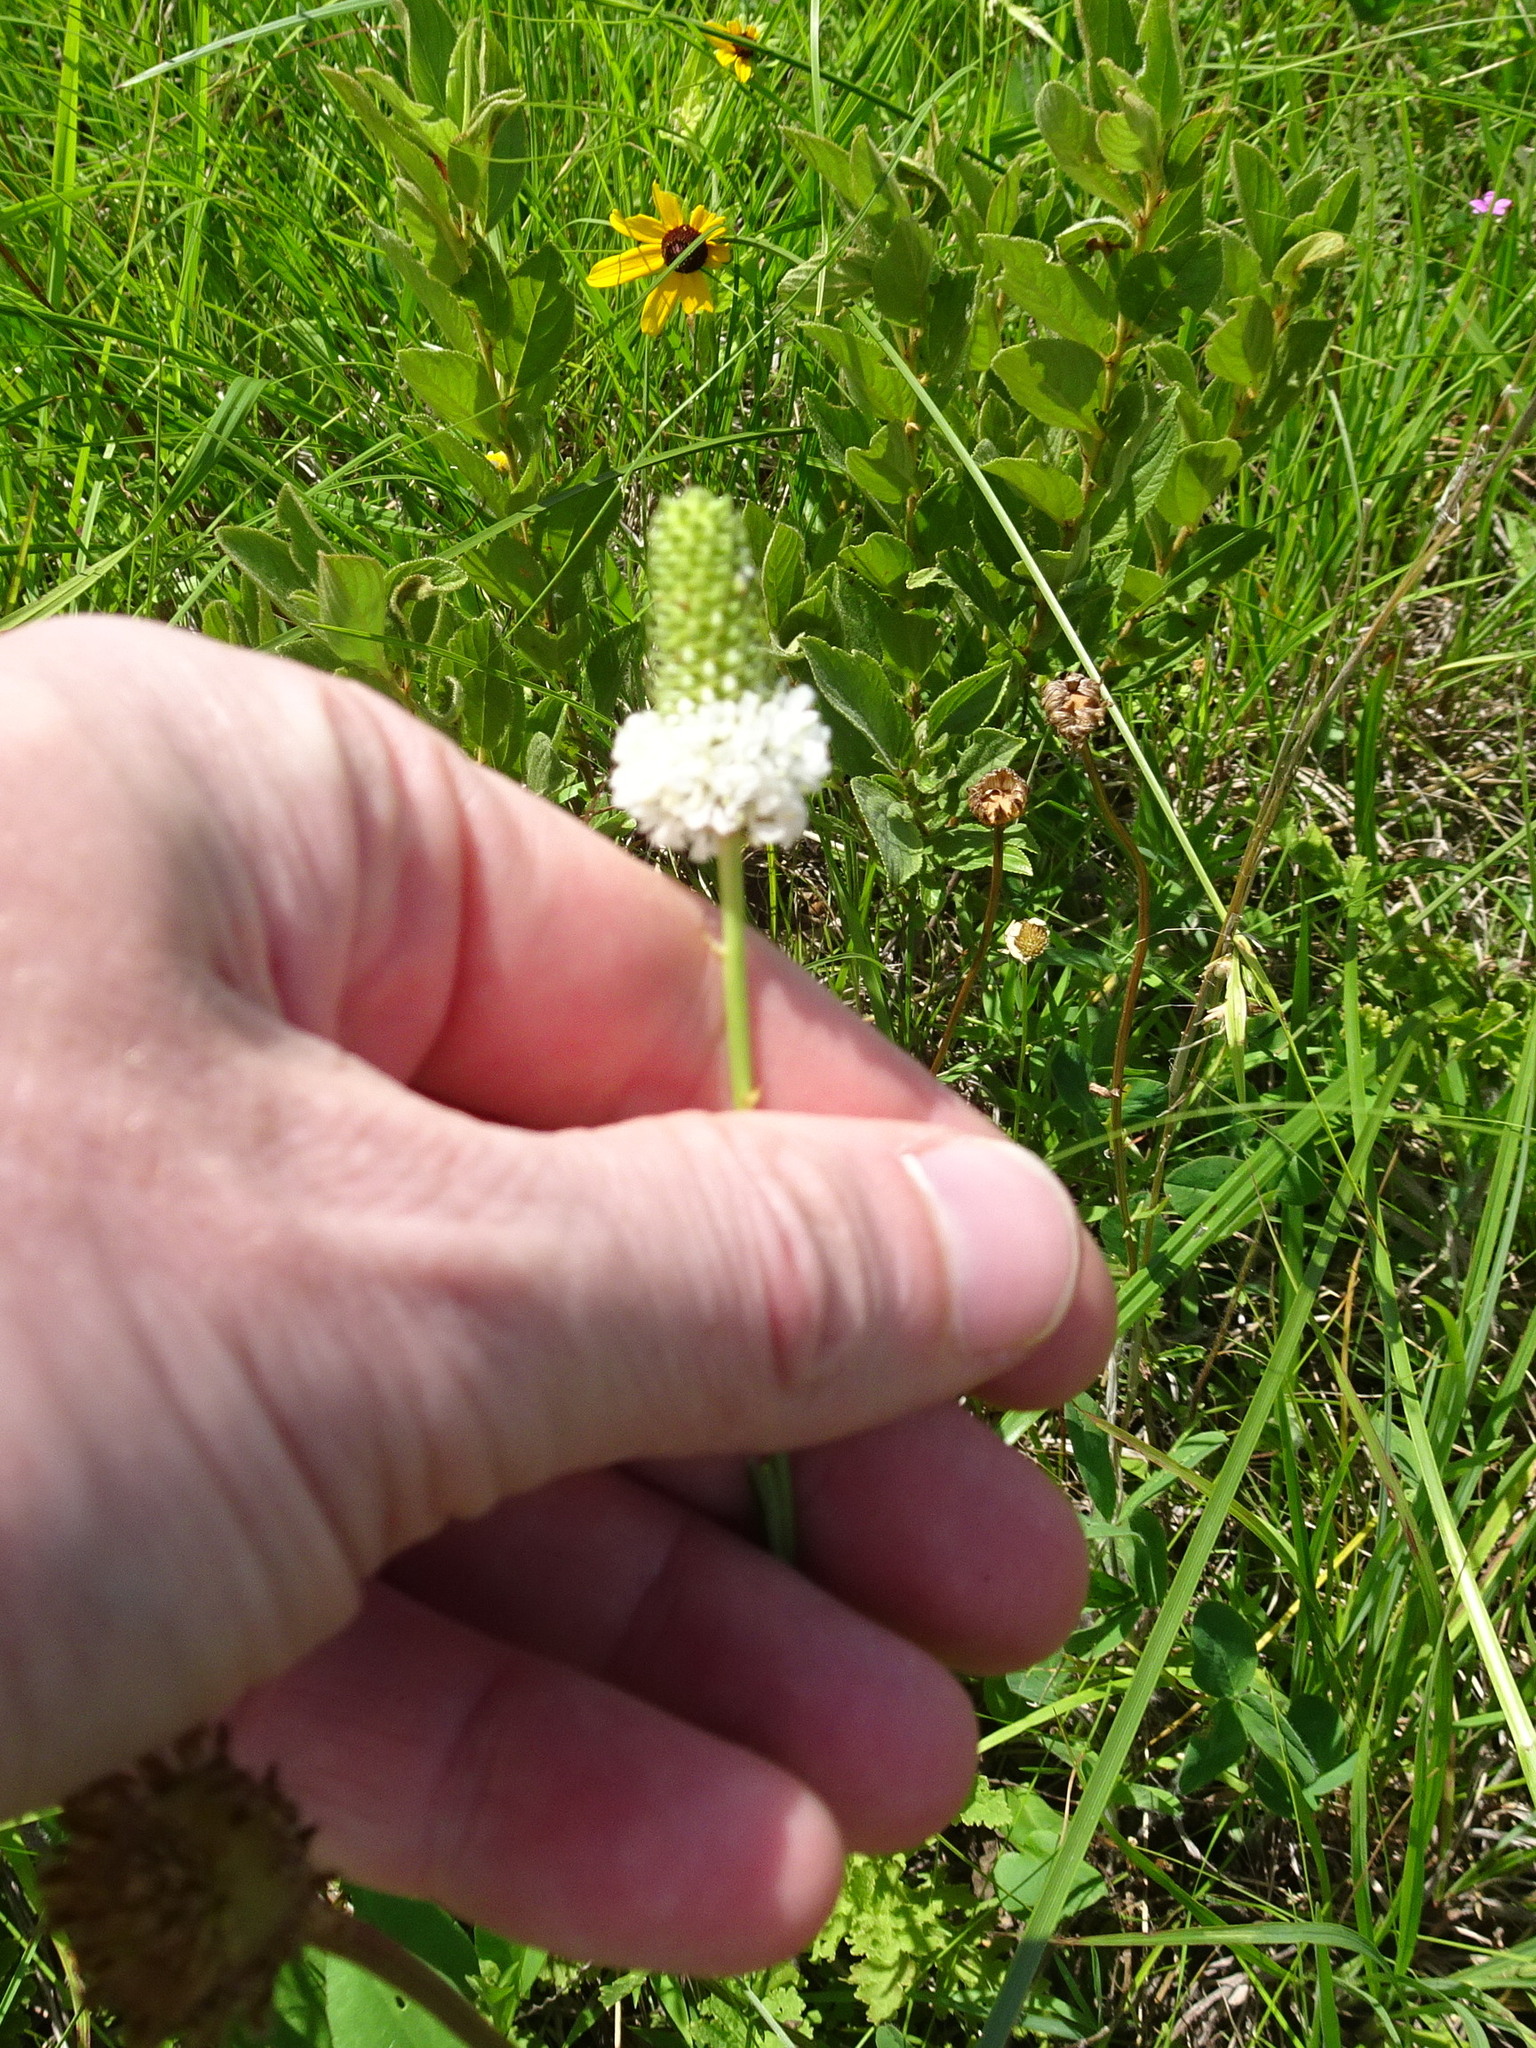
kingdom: Plantae
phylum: Tracheophyta
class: Magnoliopsida
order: Fabales
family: Fabaceae
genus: Dalea
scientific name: Dalea candida
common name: White prairie-clover
